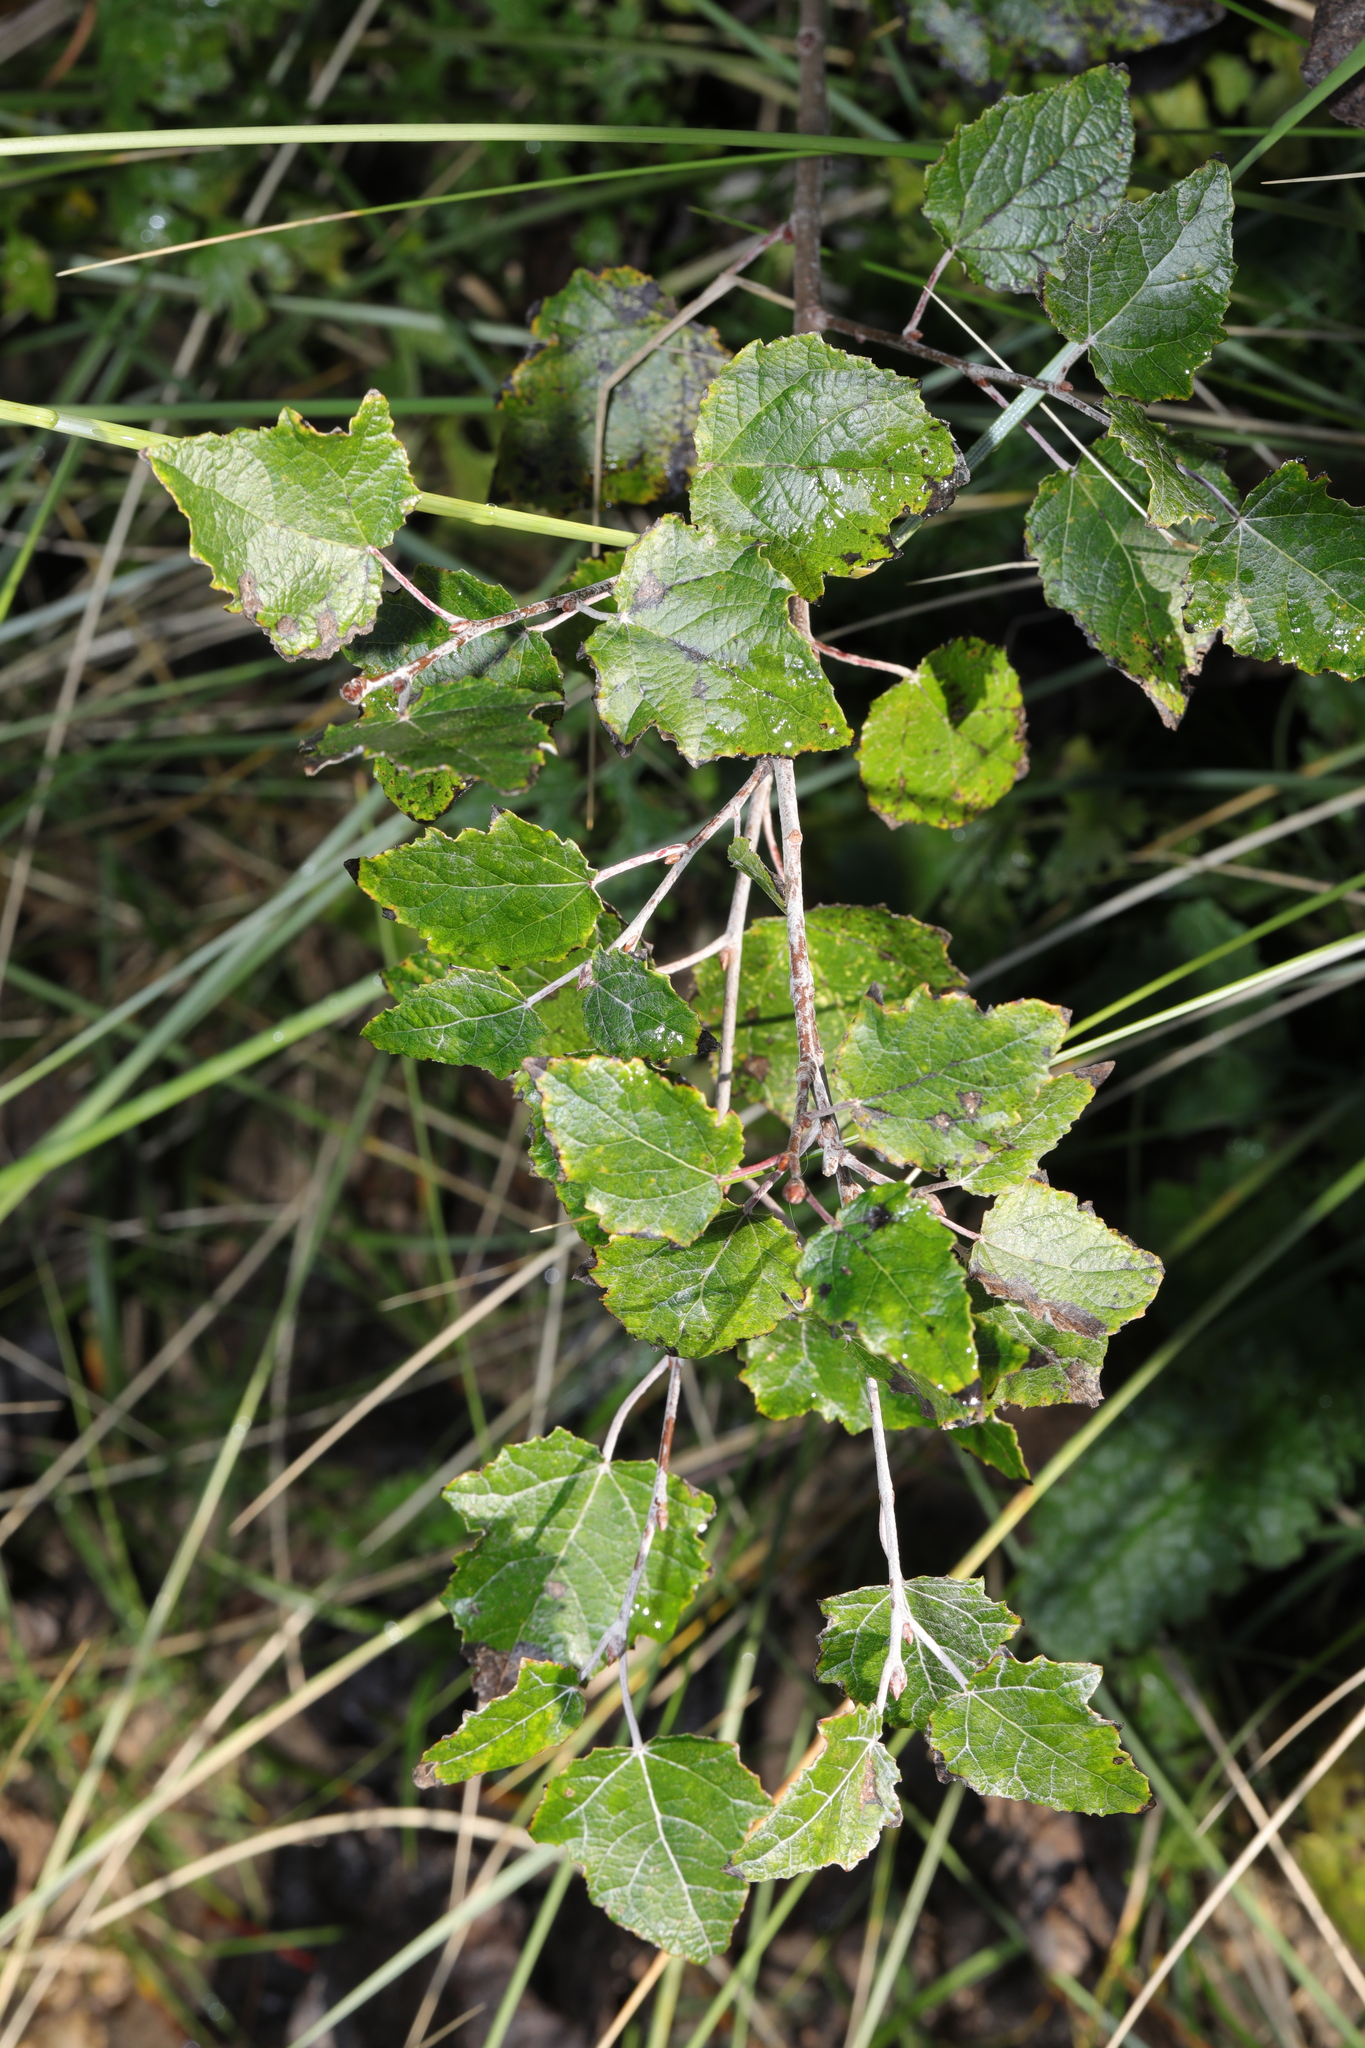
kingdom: Plantae
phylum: Tracheophyta
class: Magnoliopsida
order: Malpighiales
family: Salicaceae
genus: Populus
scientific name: Populus alba
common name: White poplar
